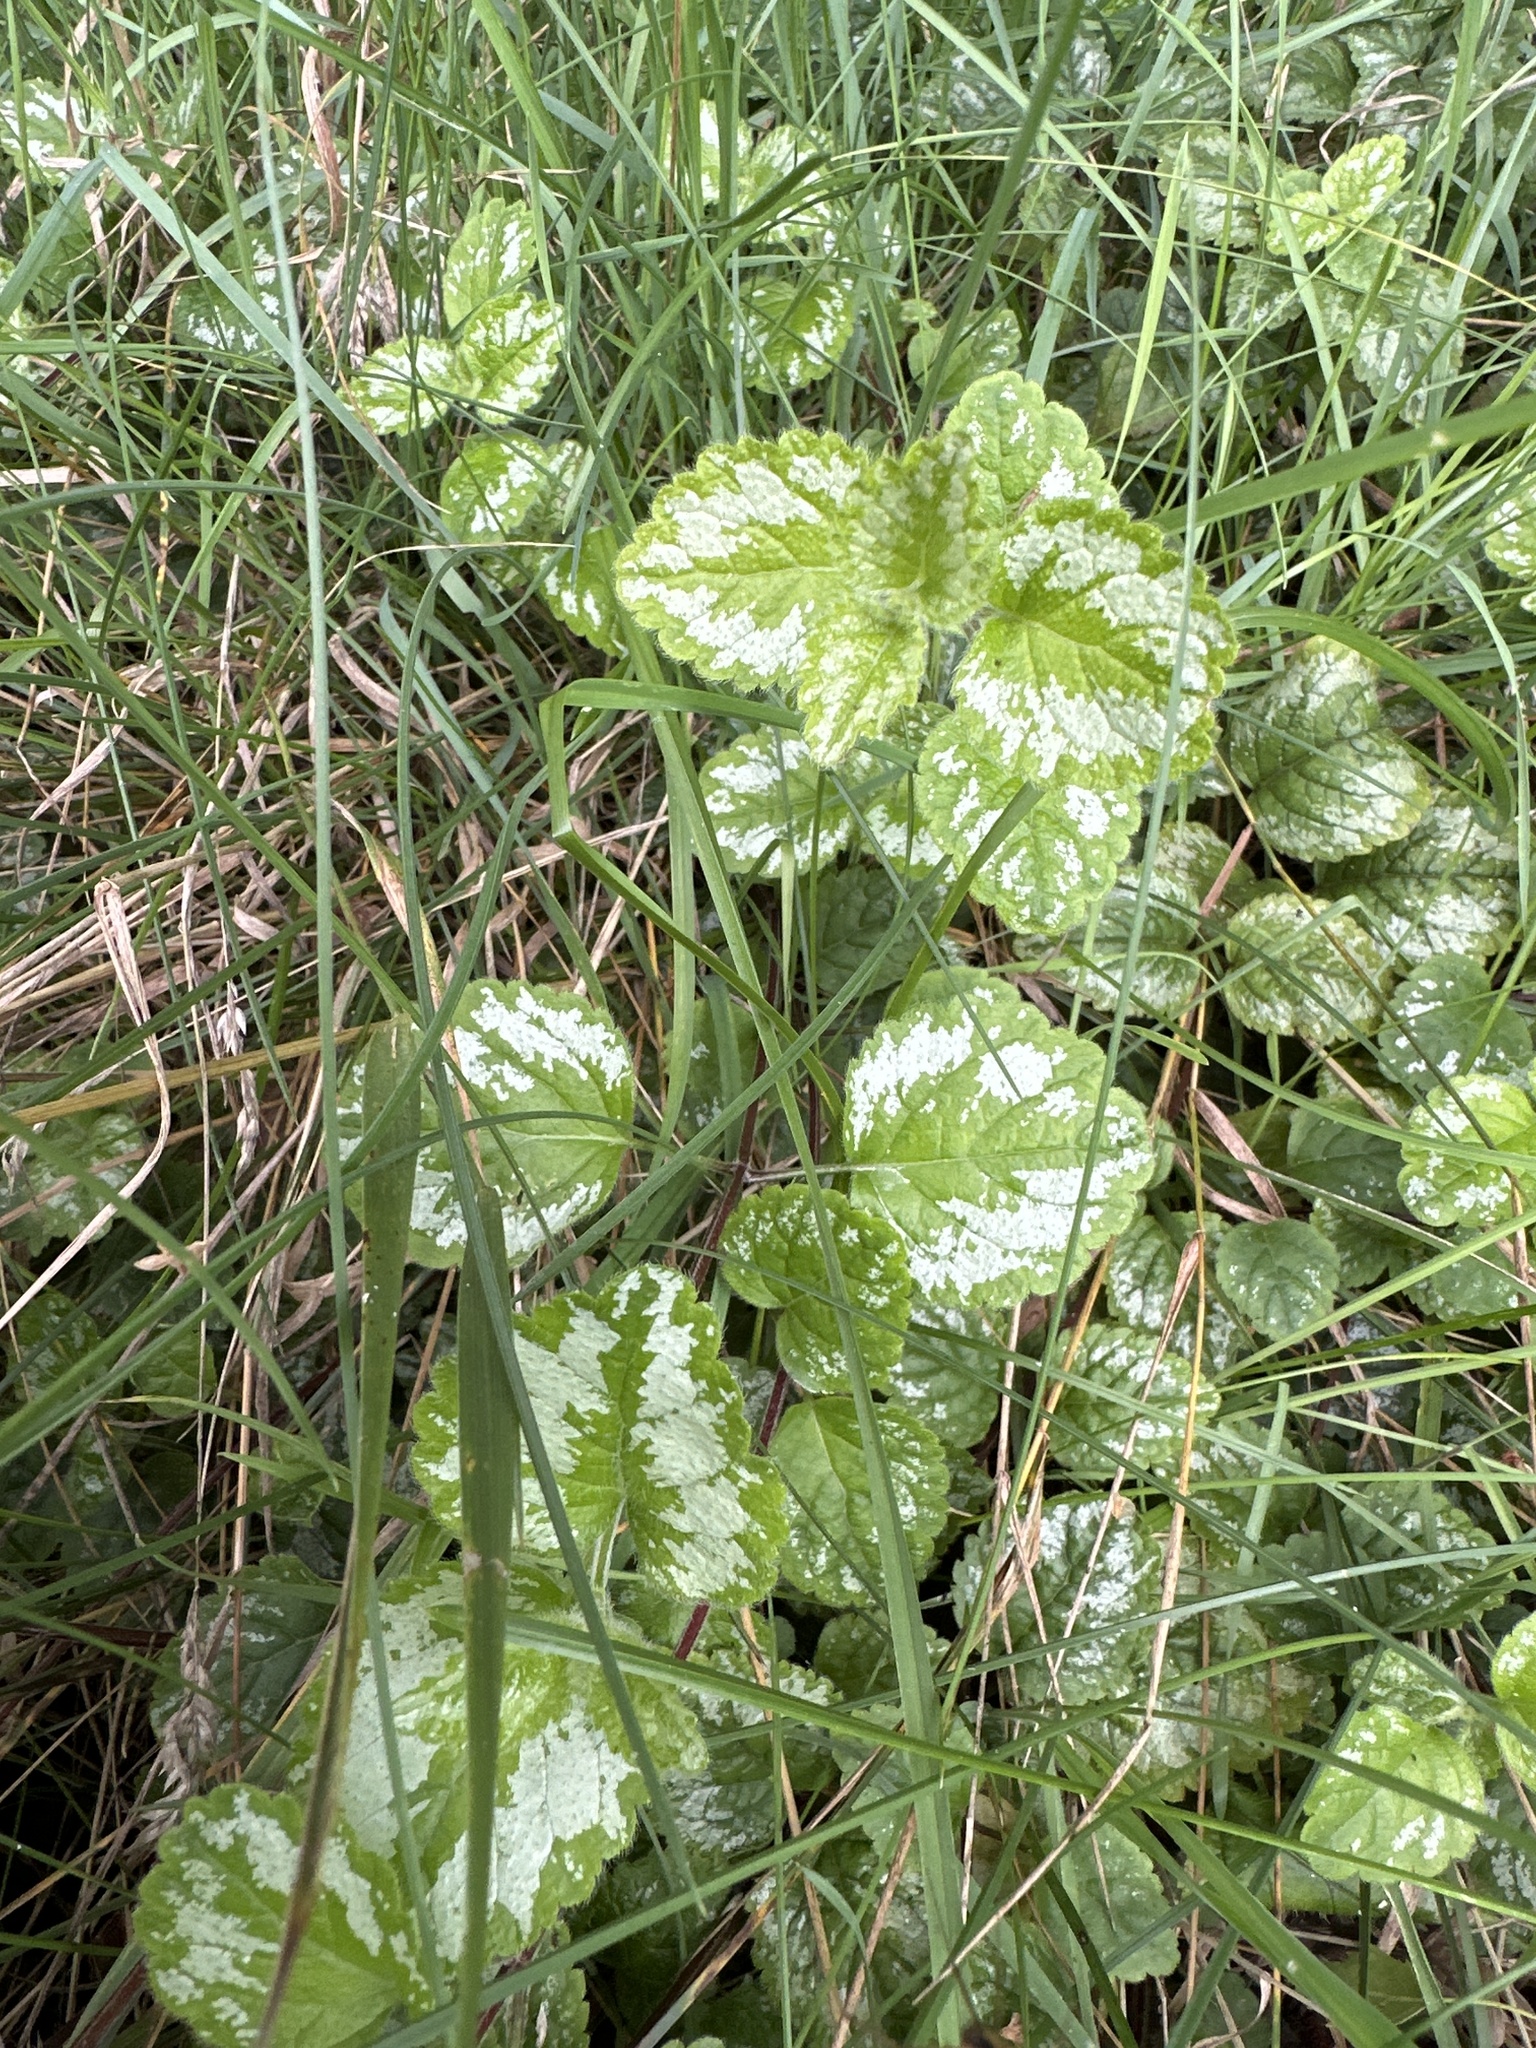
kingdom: Plantae
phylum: Tracheophyta
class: Magnoliopsida
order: Lamiales
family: Lamiaceae
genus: Lamium
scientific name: Lamium galeobdolon
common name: Yellow archangel
